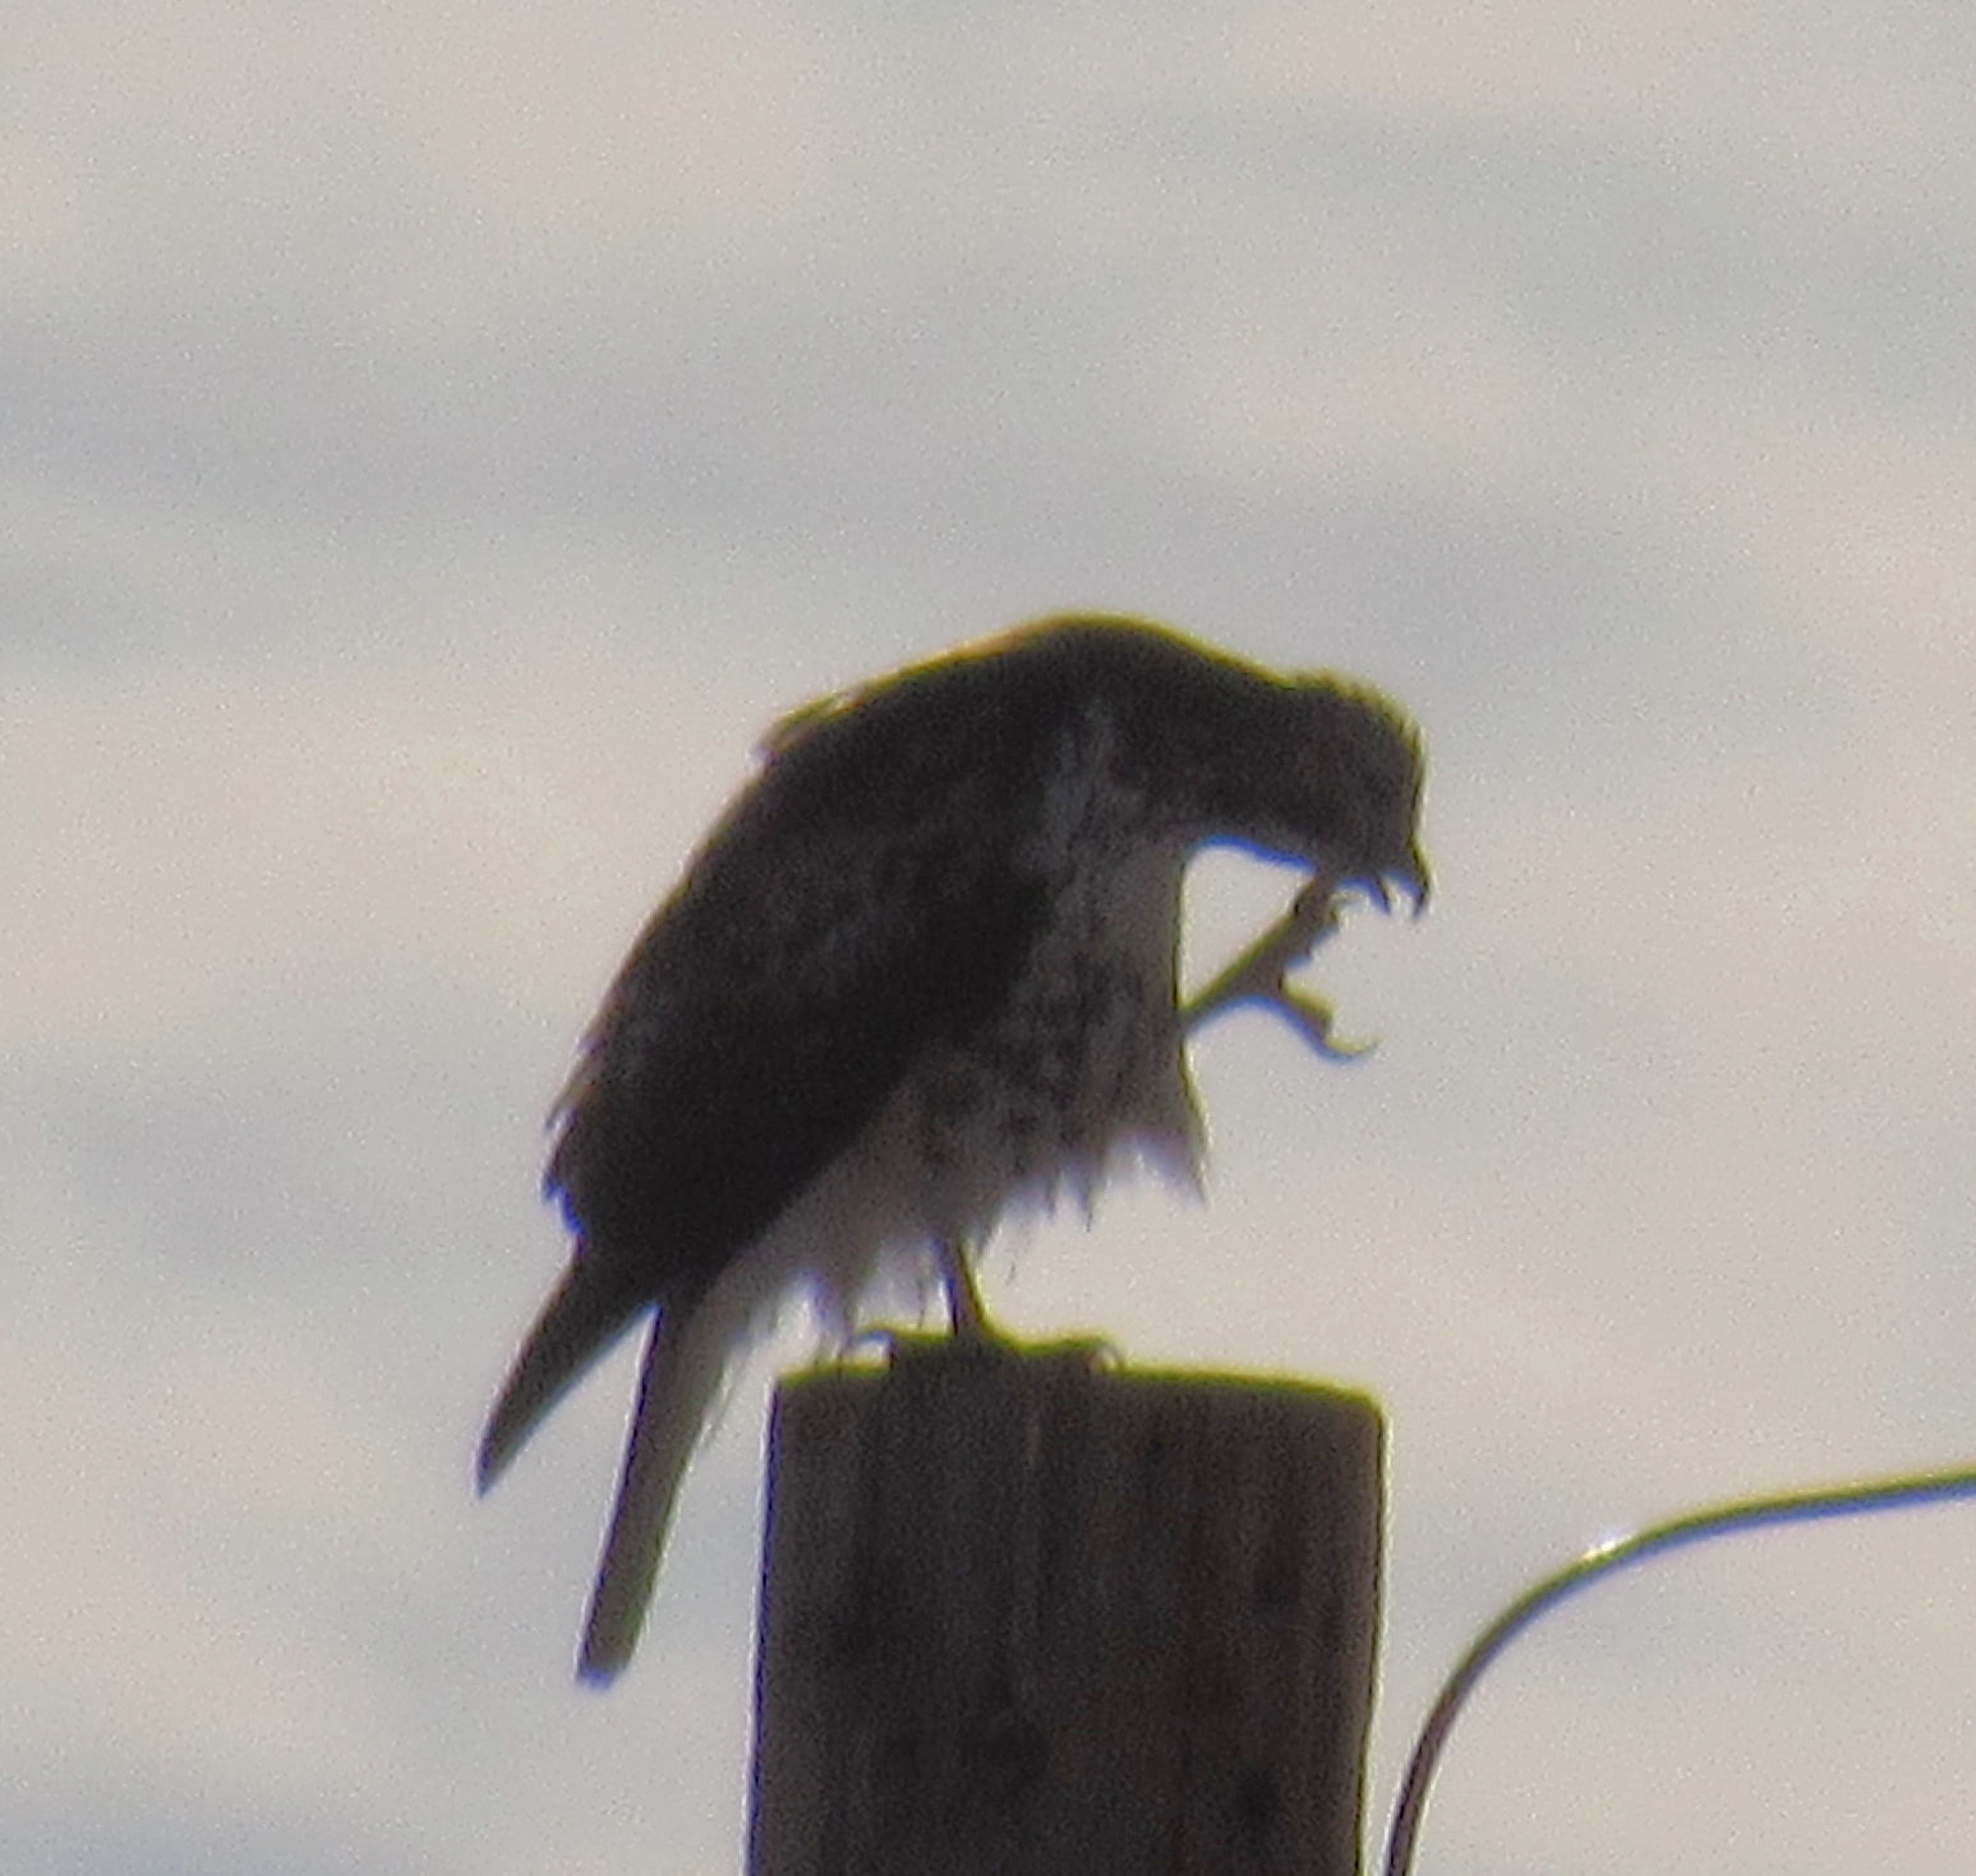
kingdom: Animalia
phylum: Chordata
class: Aves
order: Accipitriformes
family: Accipitridae
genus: Buteo
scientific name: Buteo jamaicensis
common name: Red-tailed hawk
